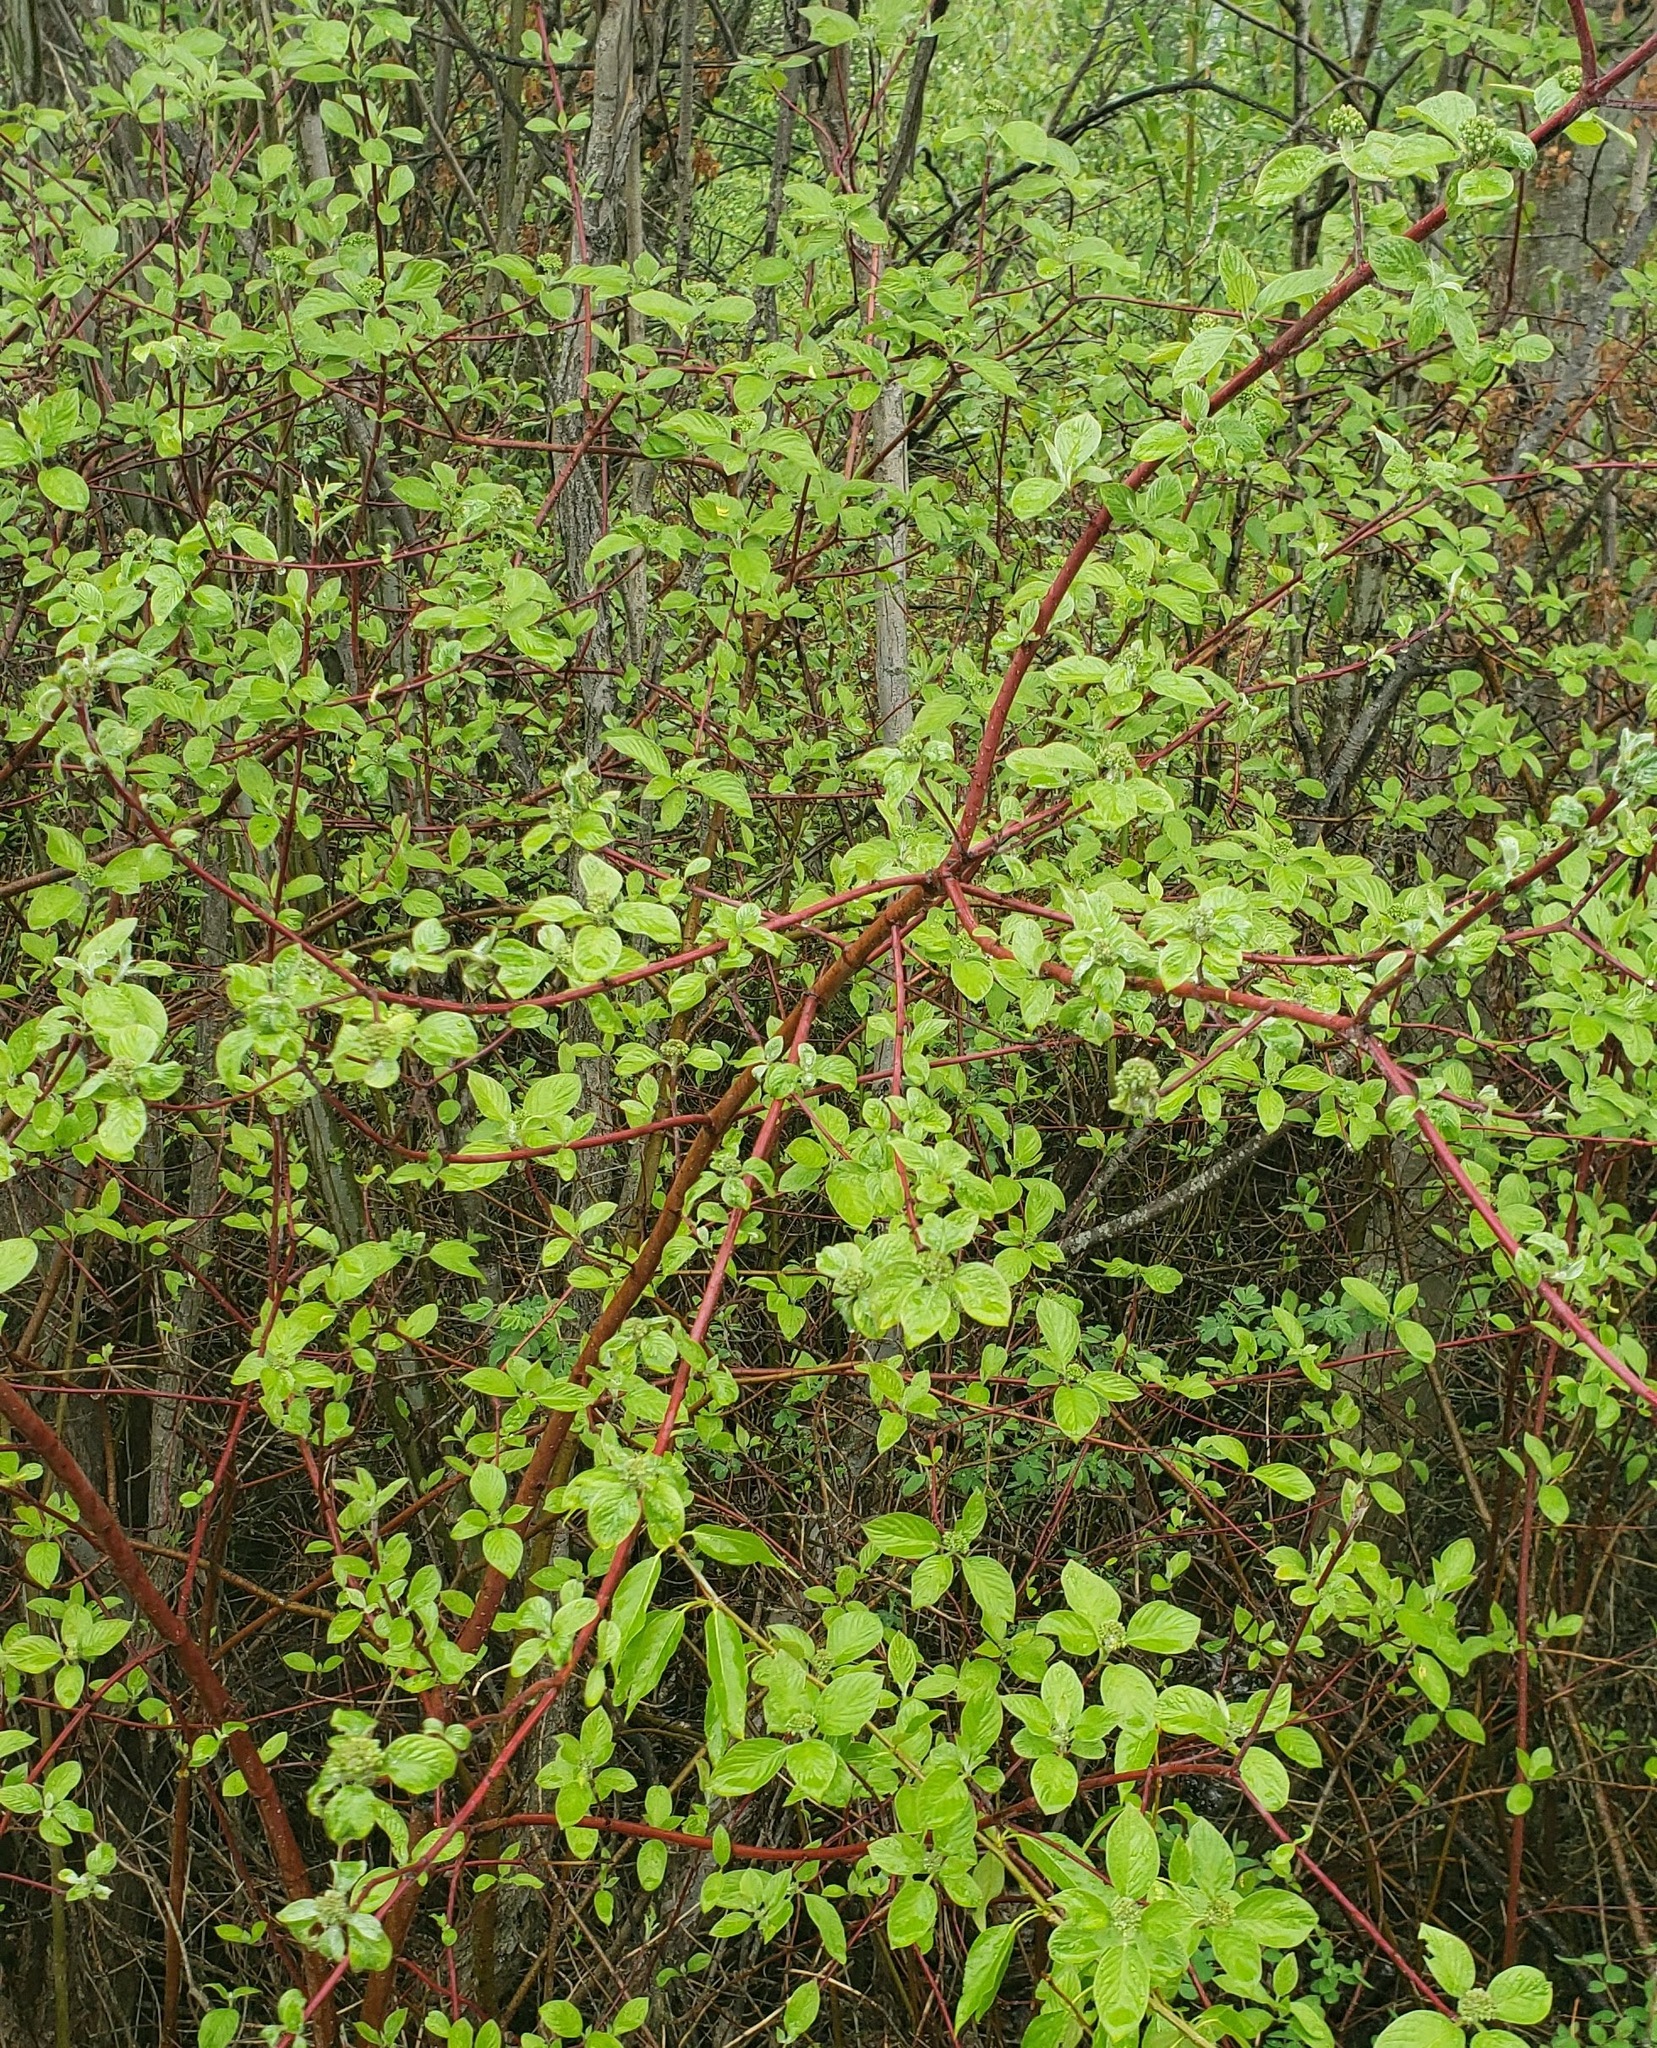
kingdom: Plantae
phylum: Tracheophyta
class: Magnoliopsida
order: Cornales
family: Cornaceae
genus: Cornus
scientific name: Cornus sericea
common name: Red-osier dogwood
